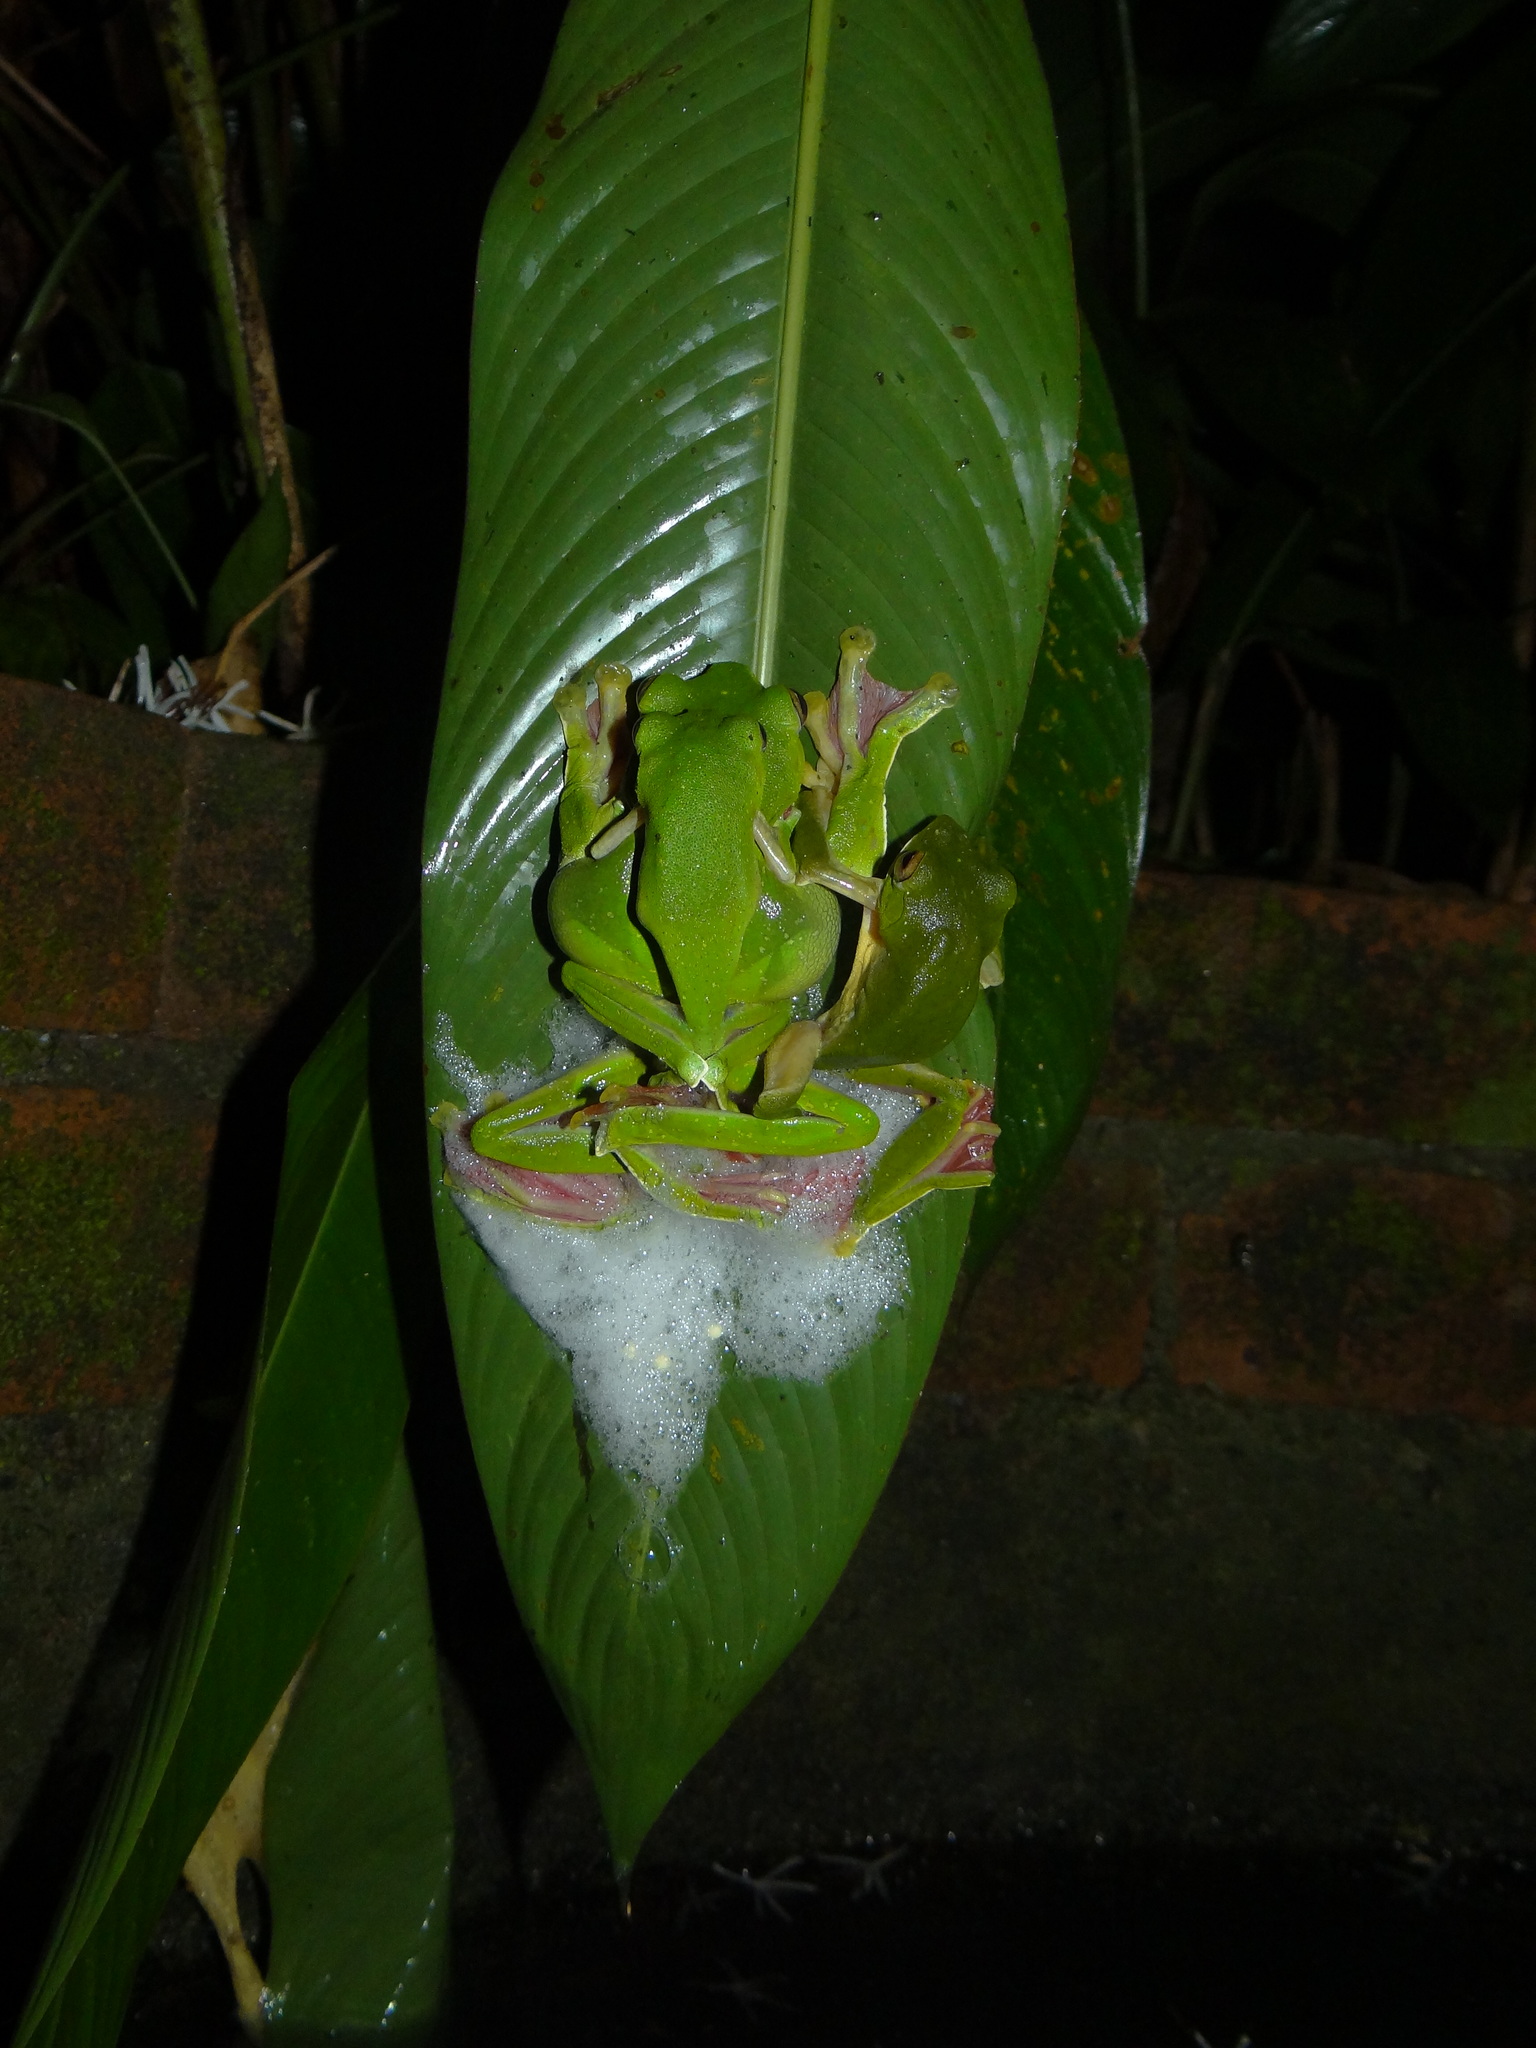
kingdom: Animalia
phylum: Chordata
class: Amphibia
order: Anura
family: Rhacophoridae
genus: Rhacophorus
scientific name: Rhacophorus malabaricus
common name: Malabar gliding frog
